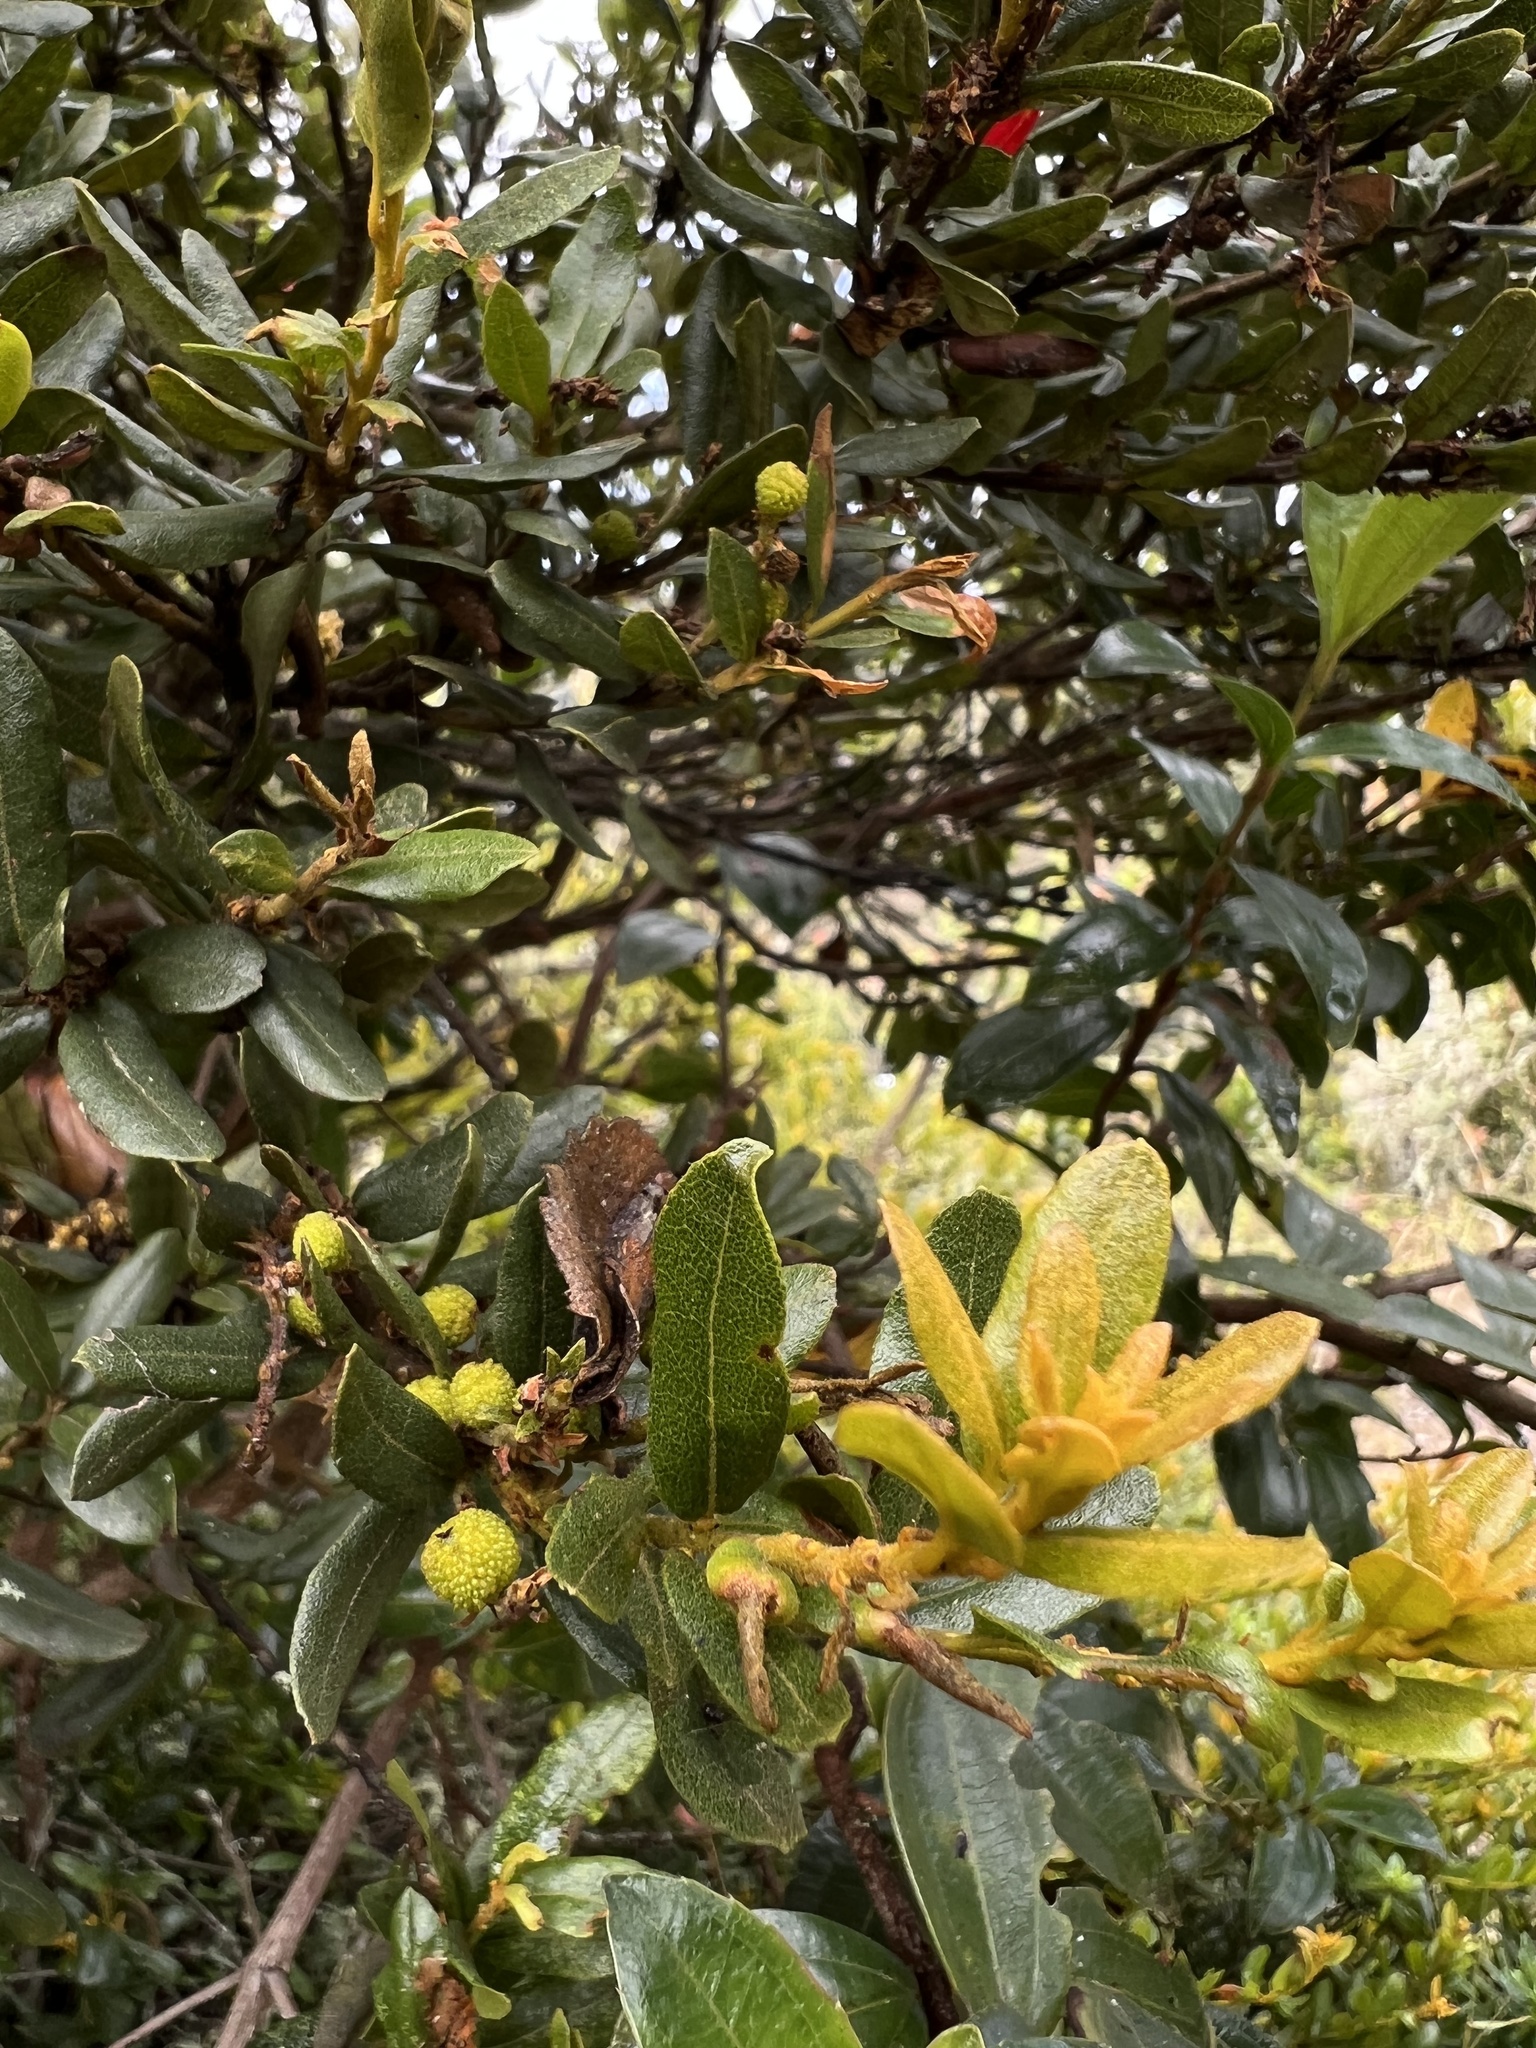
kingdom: Plantae
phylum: Tracheophyta
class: Magnoliopsida
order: Fagales
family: Myricaceae
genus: Morella
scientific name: Morella parvifolia
